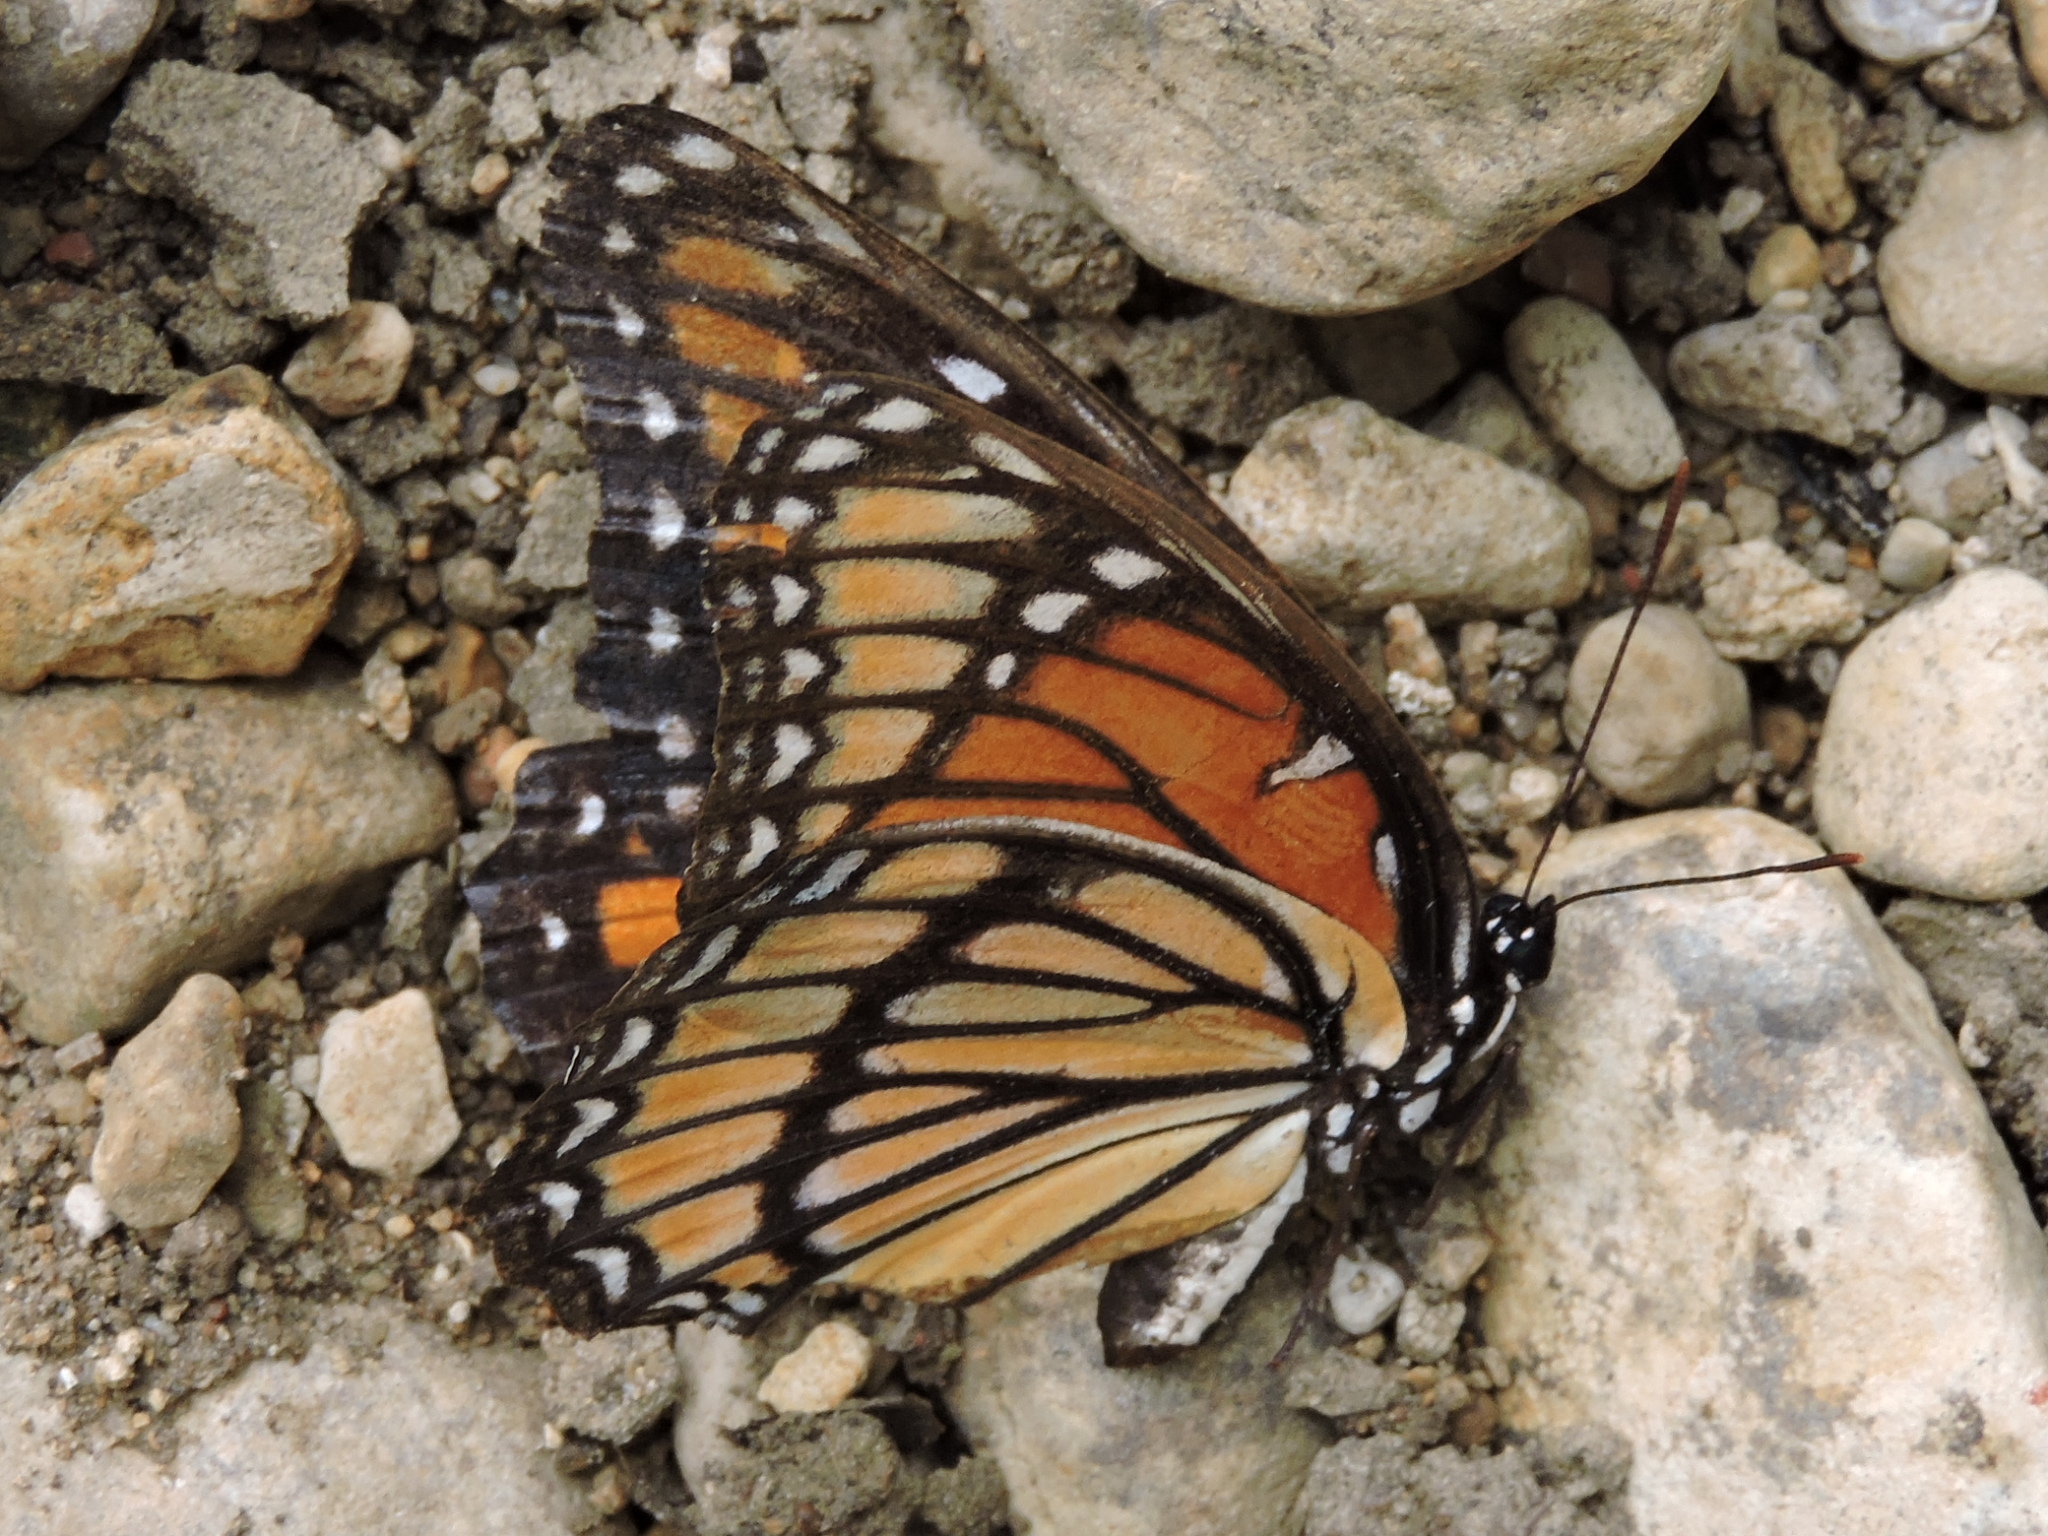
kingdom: Animalia
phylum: Arthropoda
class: Insecta
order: Lepidoptera
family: Nymphalidae
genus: Limenitis
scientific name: Limenitis archippus
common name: Viceroy
